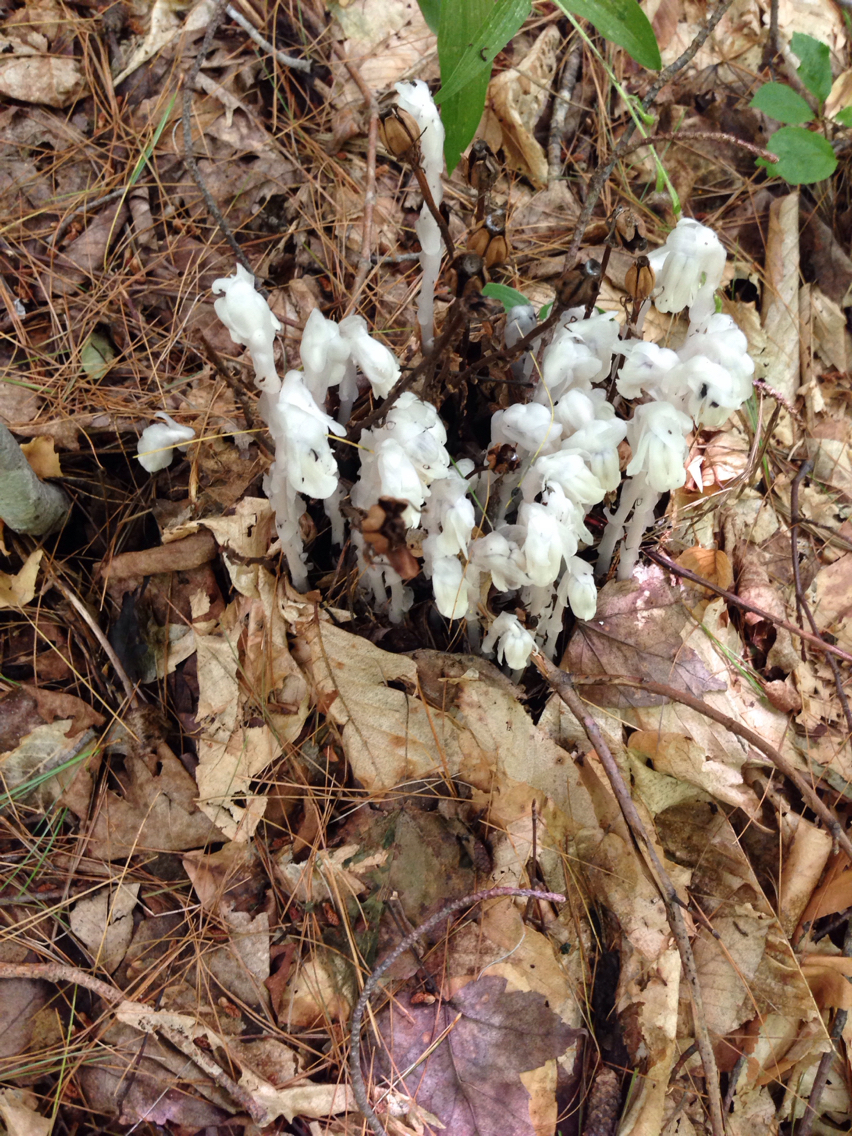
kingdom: Plantae
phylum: Tracheophyta
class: Magnoliopsida
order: Ericales
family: Ericaceae
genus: Monotropa
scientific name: Monotropa uniflora
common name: Convulsion root
